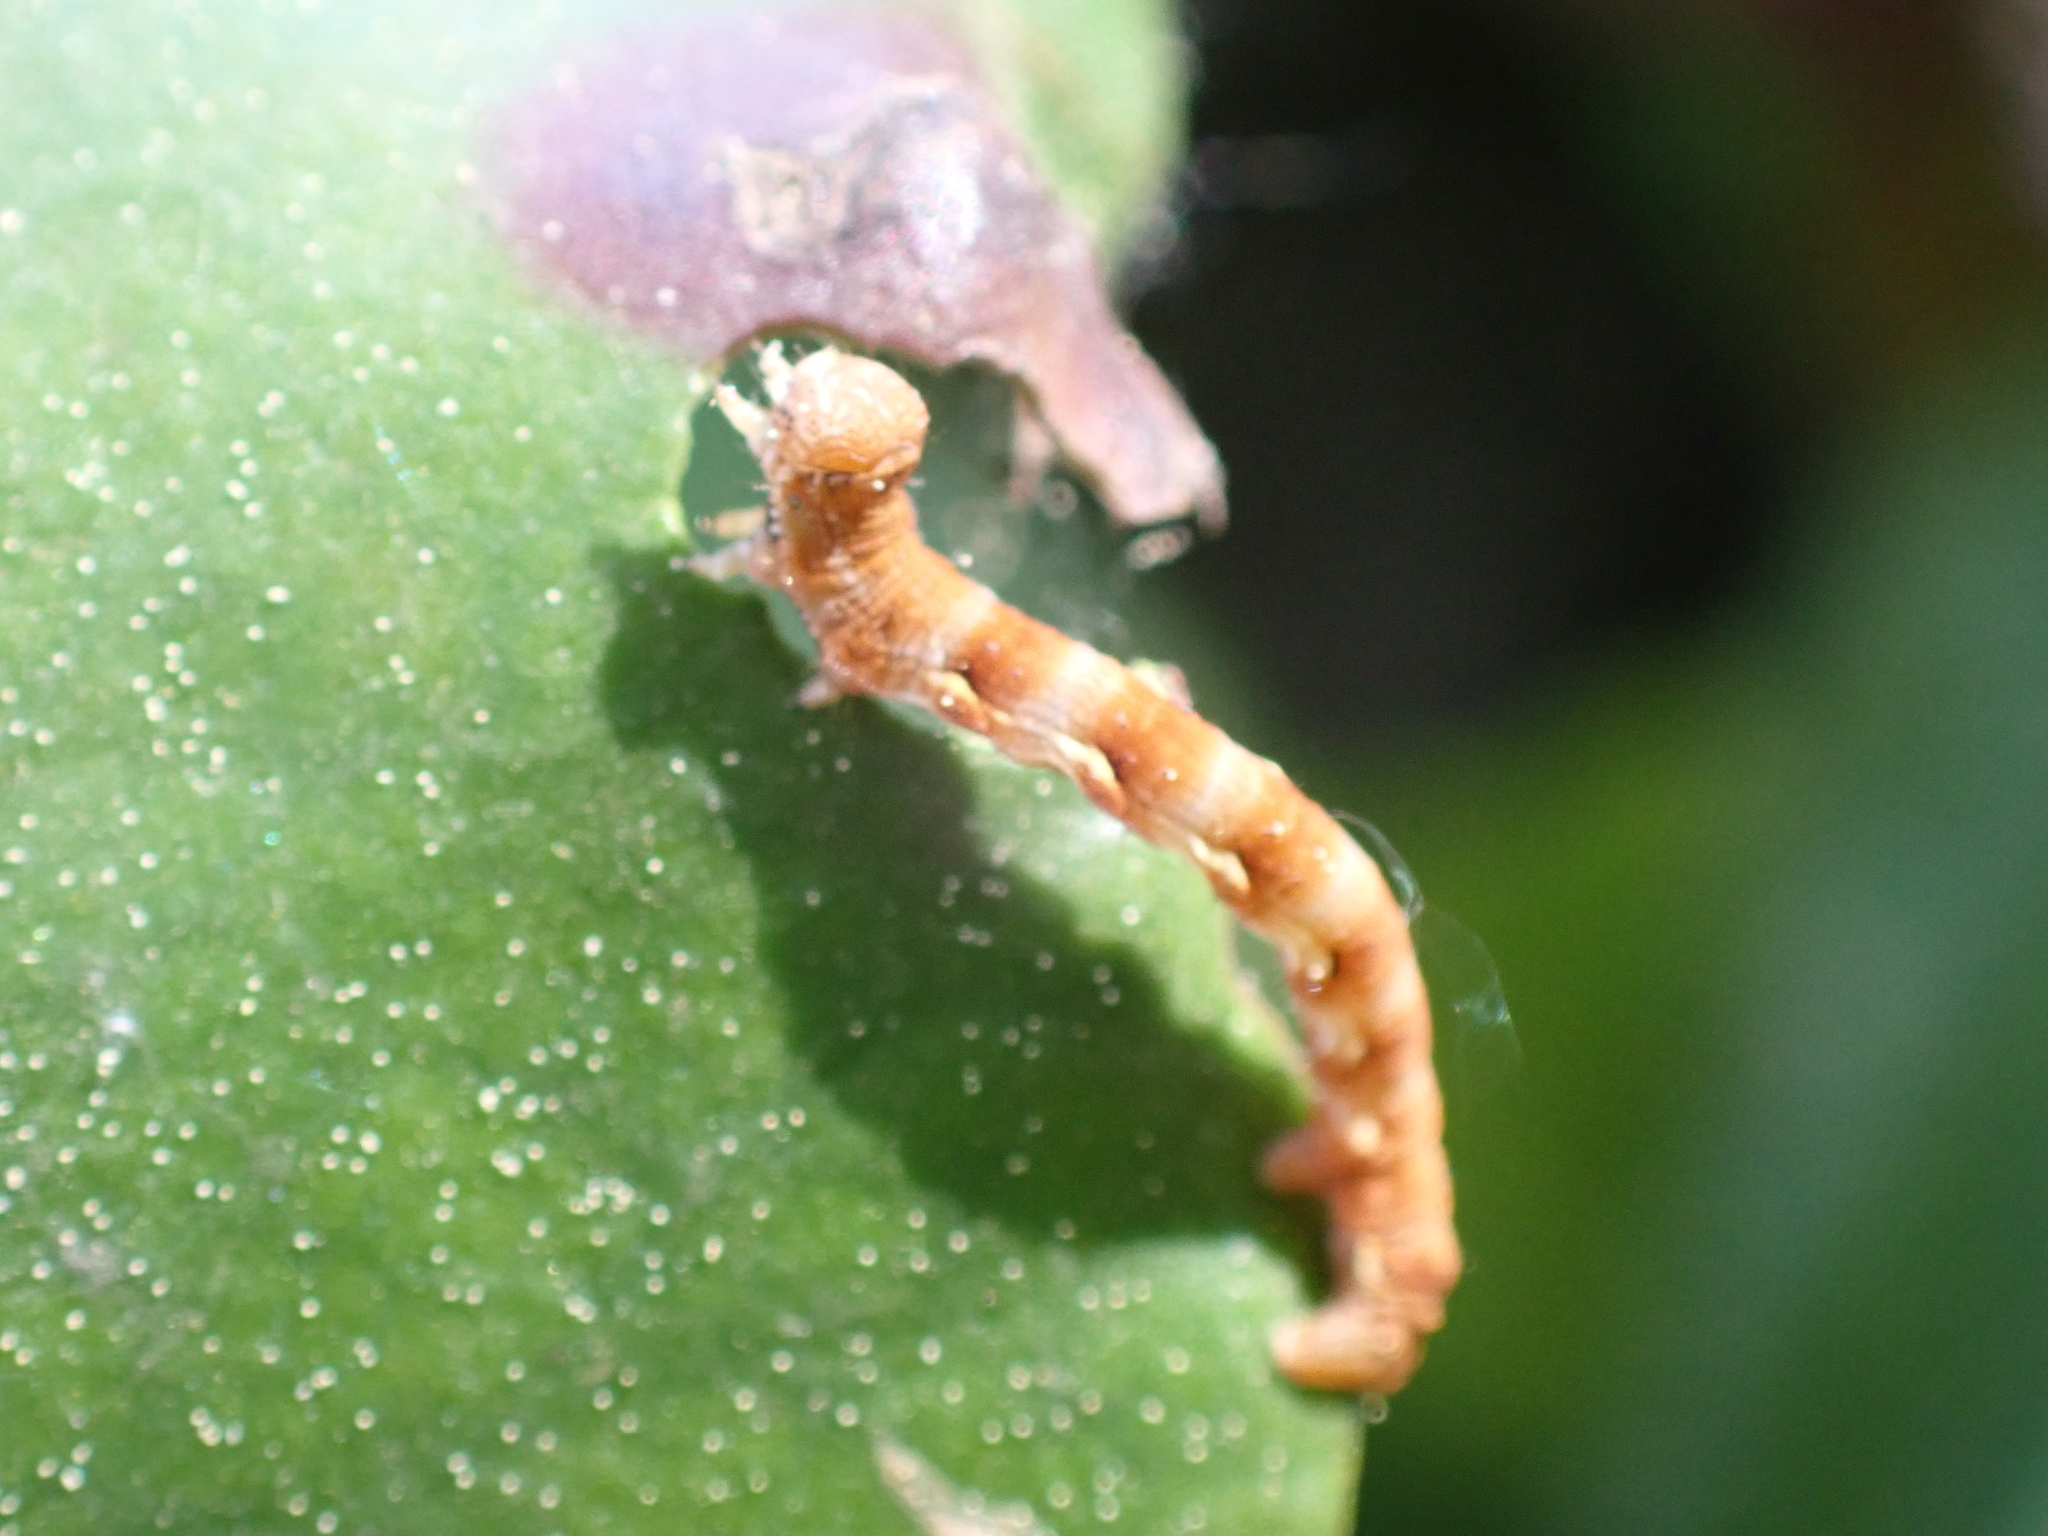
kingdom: Animalia
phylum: Arthropoda
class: Insecta
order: Lepidoptera
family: Geometridae
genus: Erannis
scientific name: Erannis defoliaria
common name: Mottled umber
